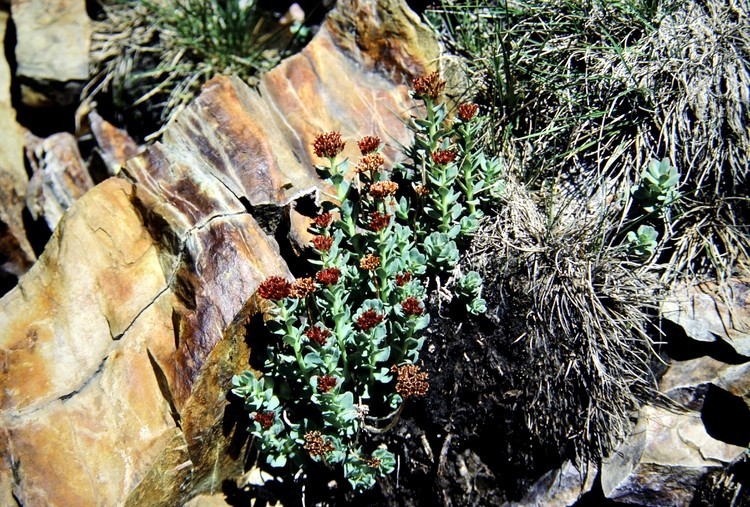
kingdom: Plantae
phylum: Tracheophyta
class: Magnoliopsida
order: Saxifragales
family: Crassulaceae
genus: Rhodiola
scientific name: Rhodiola integrifolia
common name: Western roseroot
